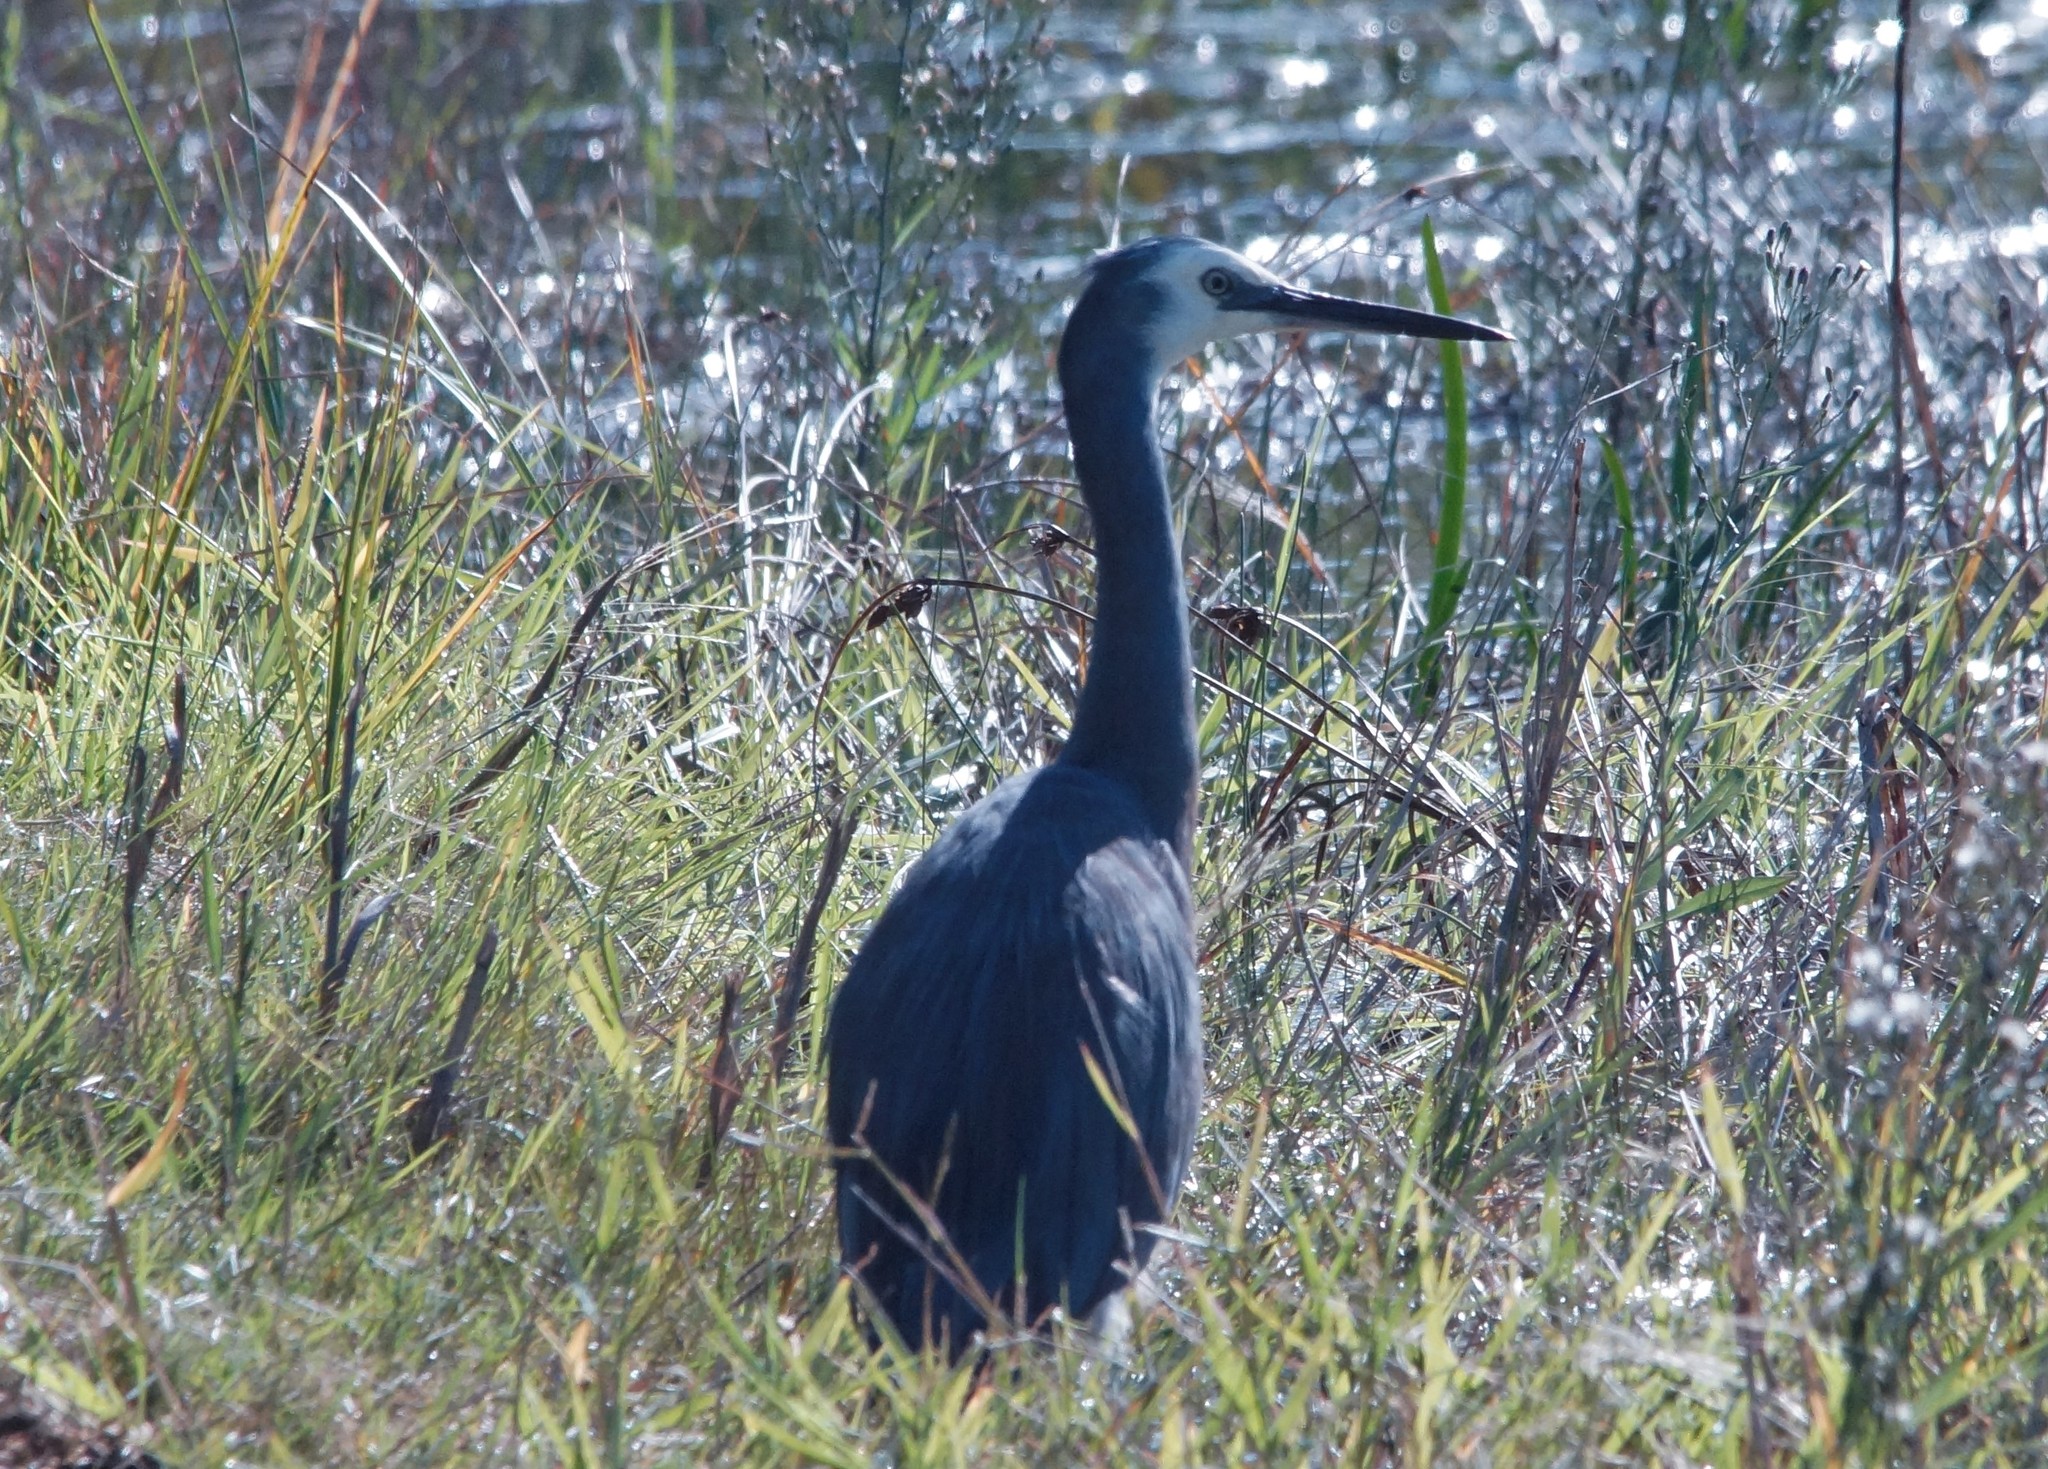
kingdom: Animalia
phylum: Chordata
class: Aves
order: Pelecaniformes
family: Ardeidae
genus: Egretta
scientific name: Egretta novaehollandiae
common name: White-faced heron
